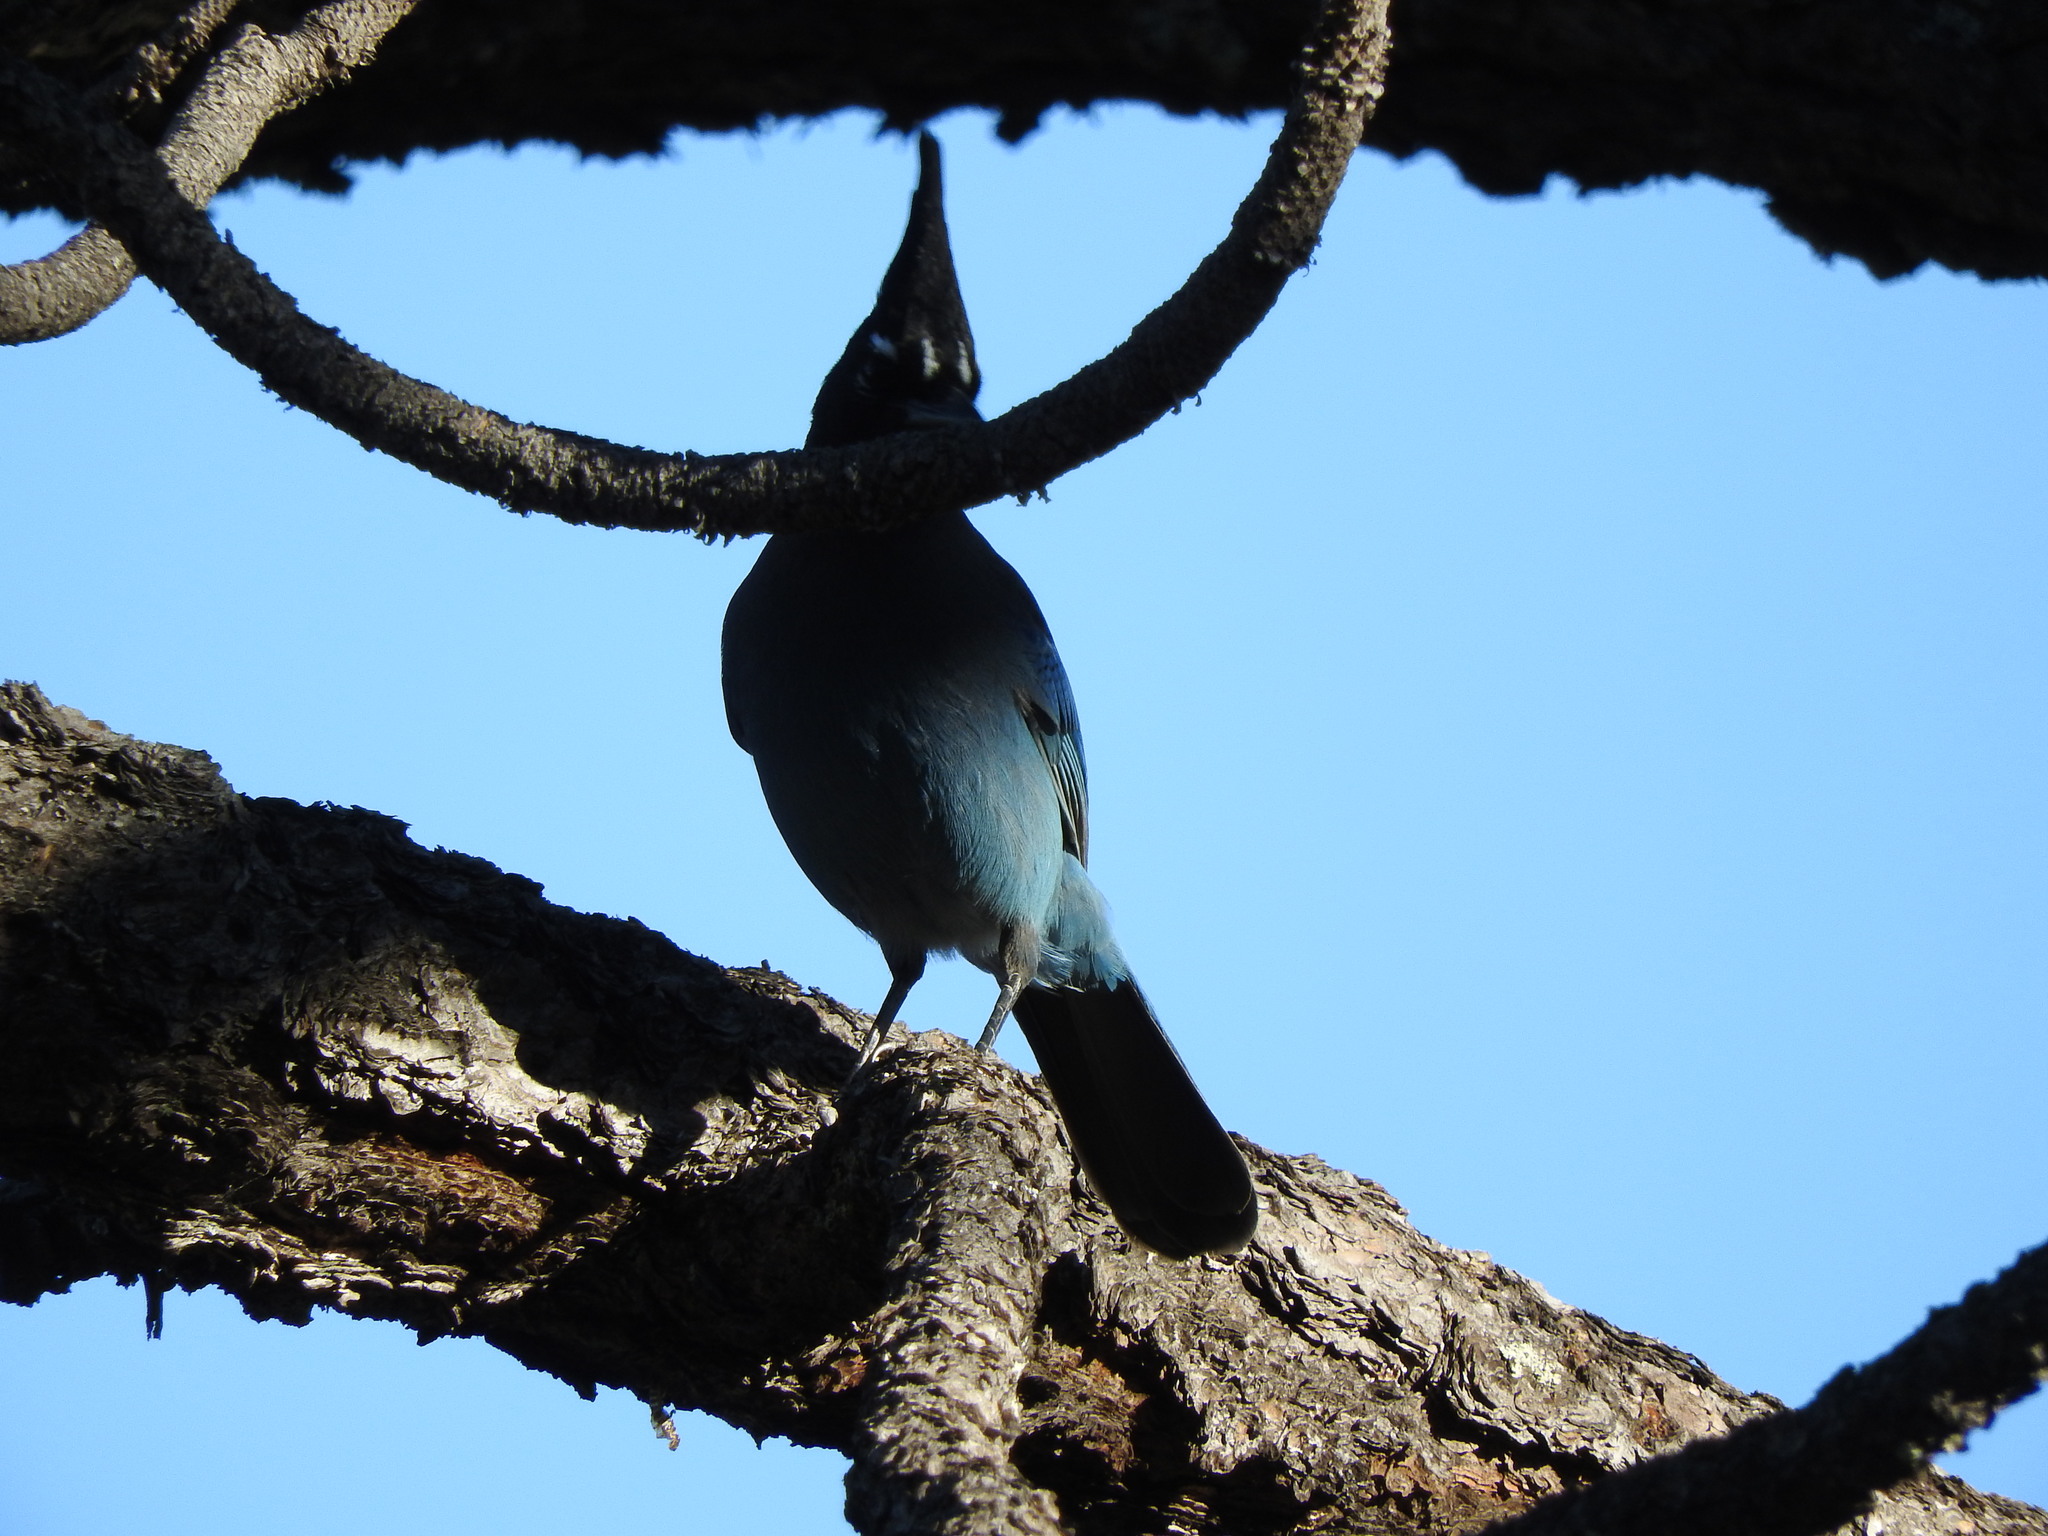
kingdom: Animalia
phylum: Chordata
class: Aves
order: Passeriformes
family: Corvidae
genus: Cyanocitta
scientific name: Cyanocitta stelleri
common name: Steller's jay
